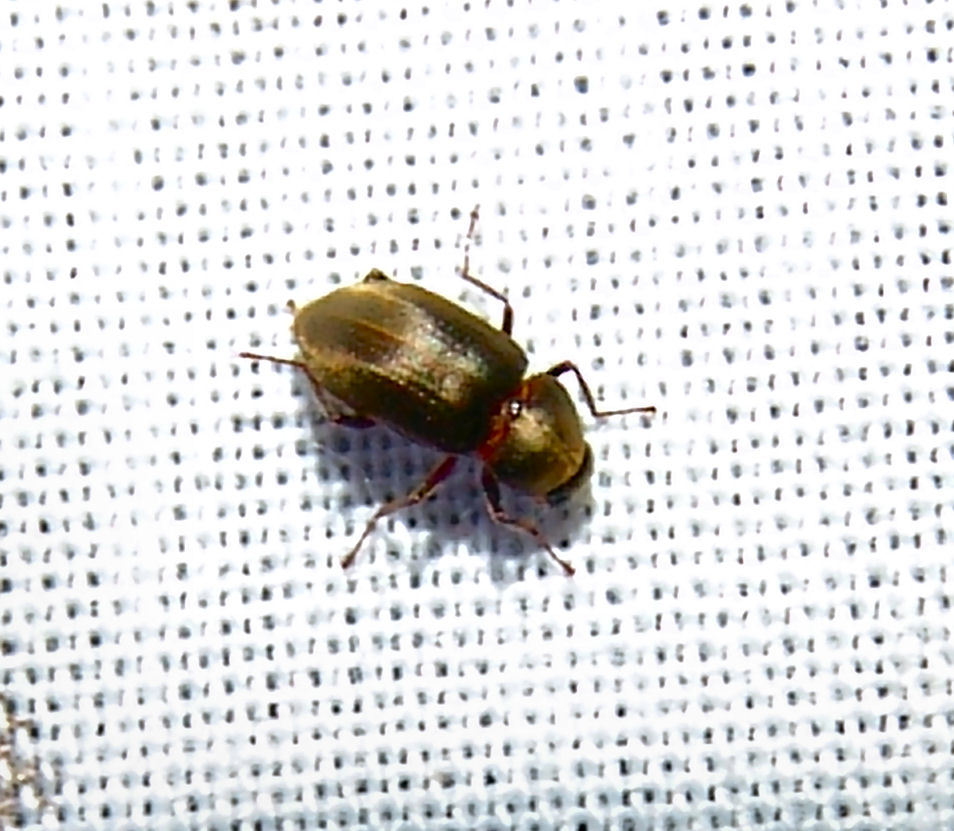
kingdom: Animalia
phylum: Arthropoda
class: Insecta
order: Coleoptera
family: Dryopidae
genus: Helichus
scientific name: Helichus lithophilus
